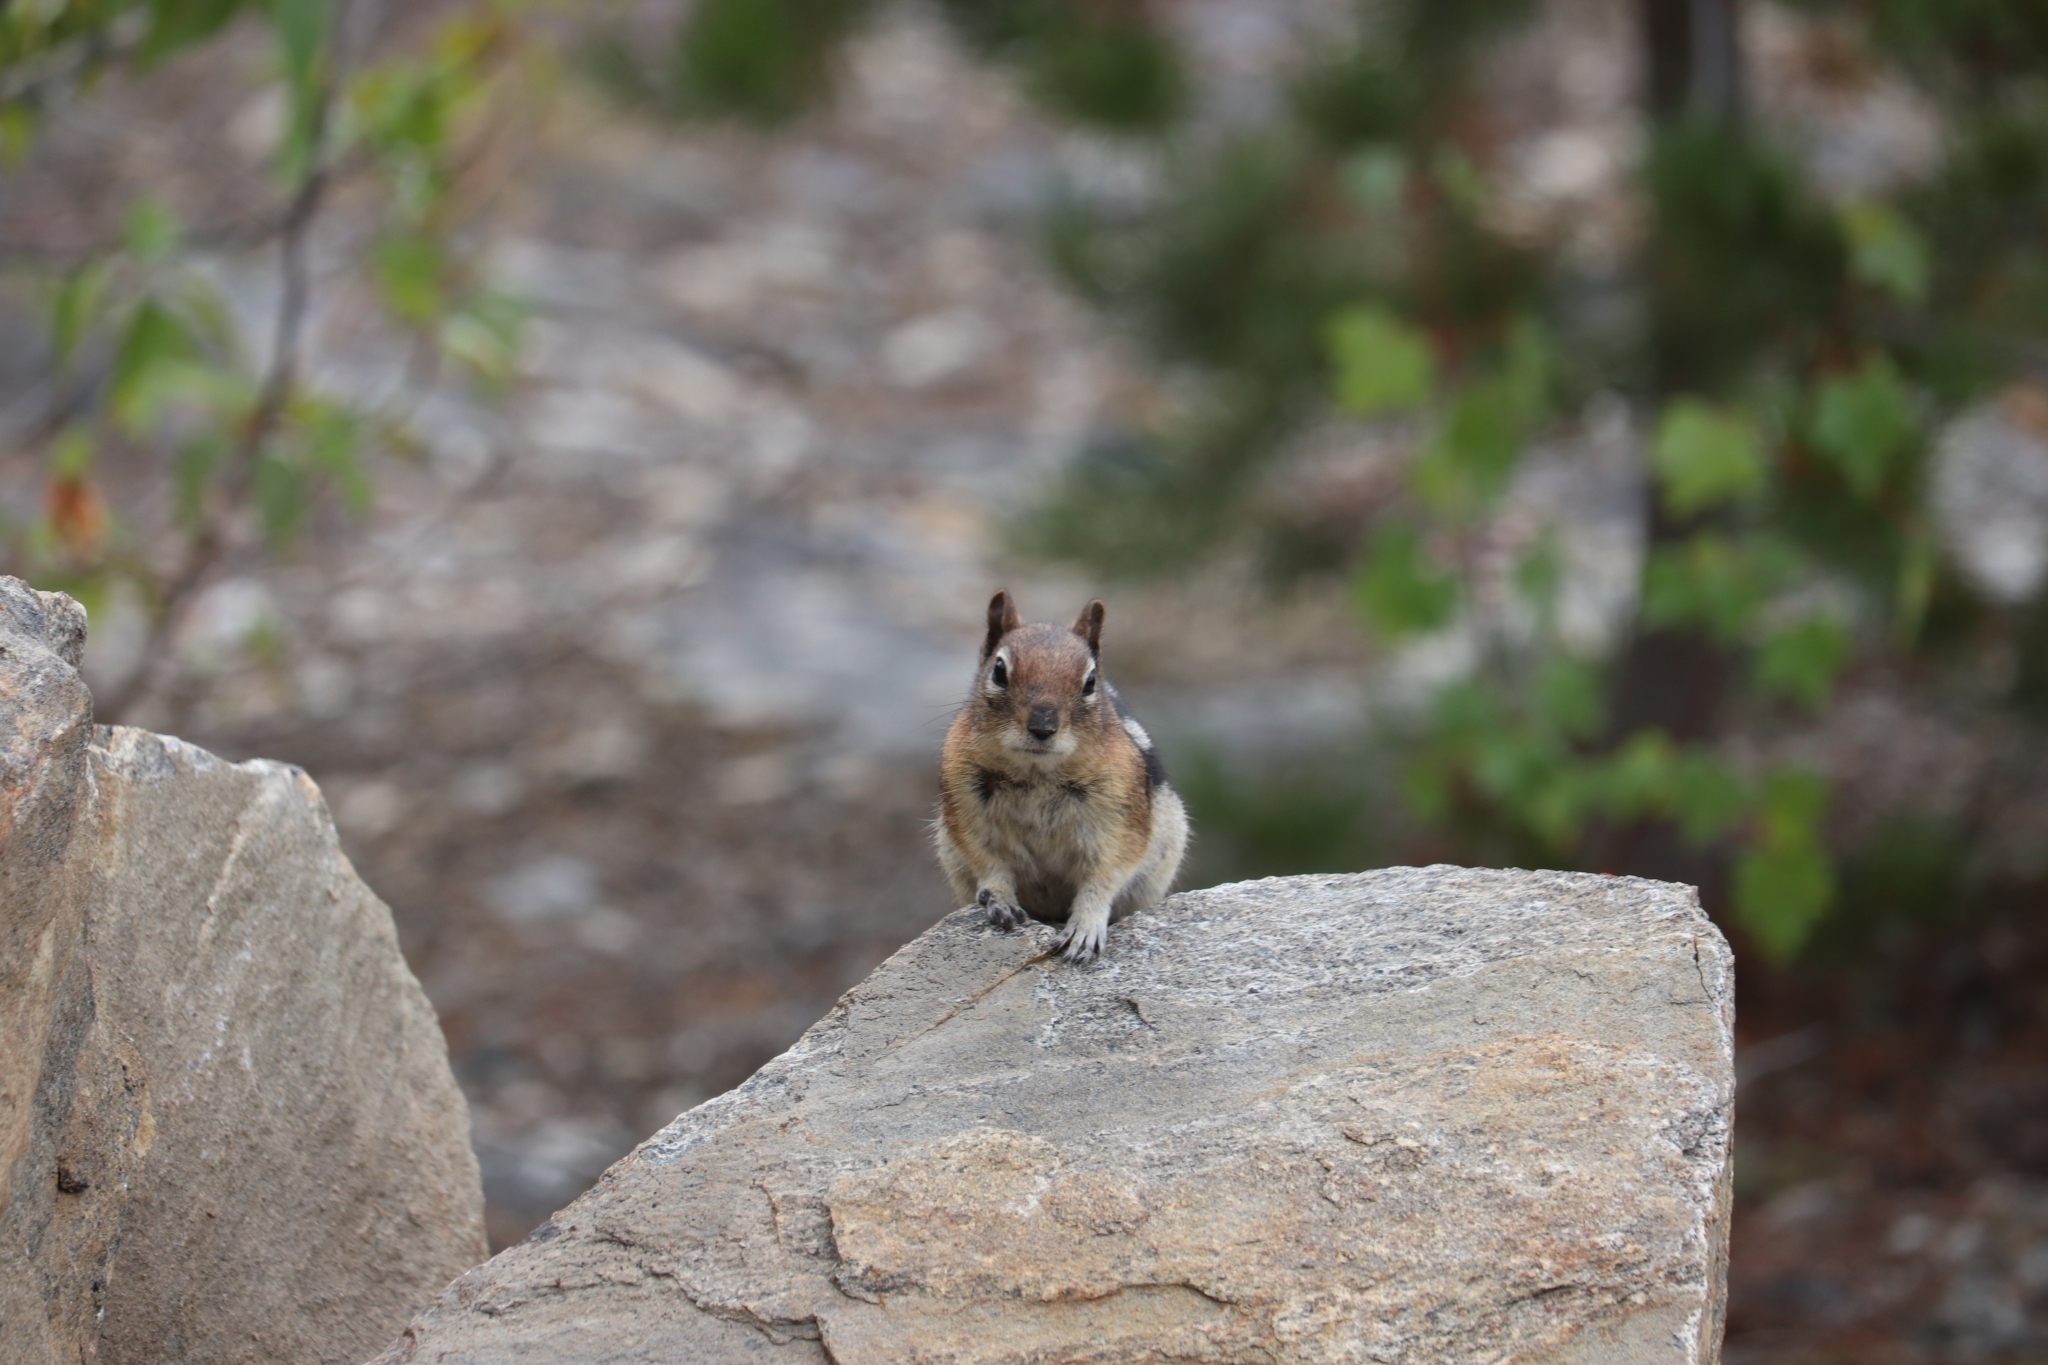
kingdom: Animalia
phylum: Chordata
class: Mammalia
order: Rodentia
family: Sciuridae
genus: Callospermophilus
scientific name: Callospermophilus lateralis
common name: Golden-mantled ground squirrel
